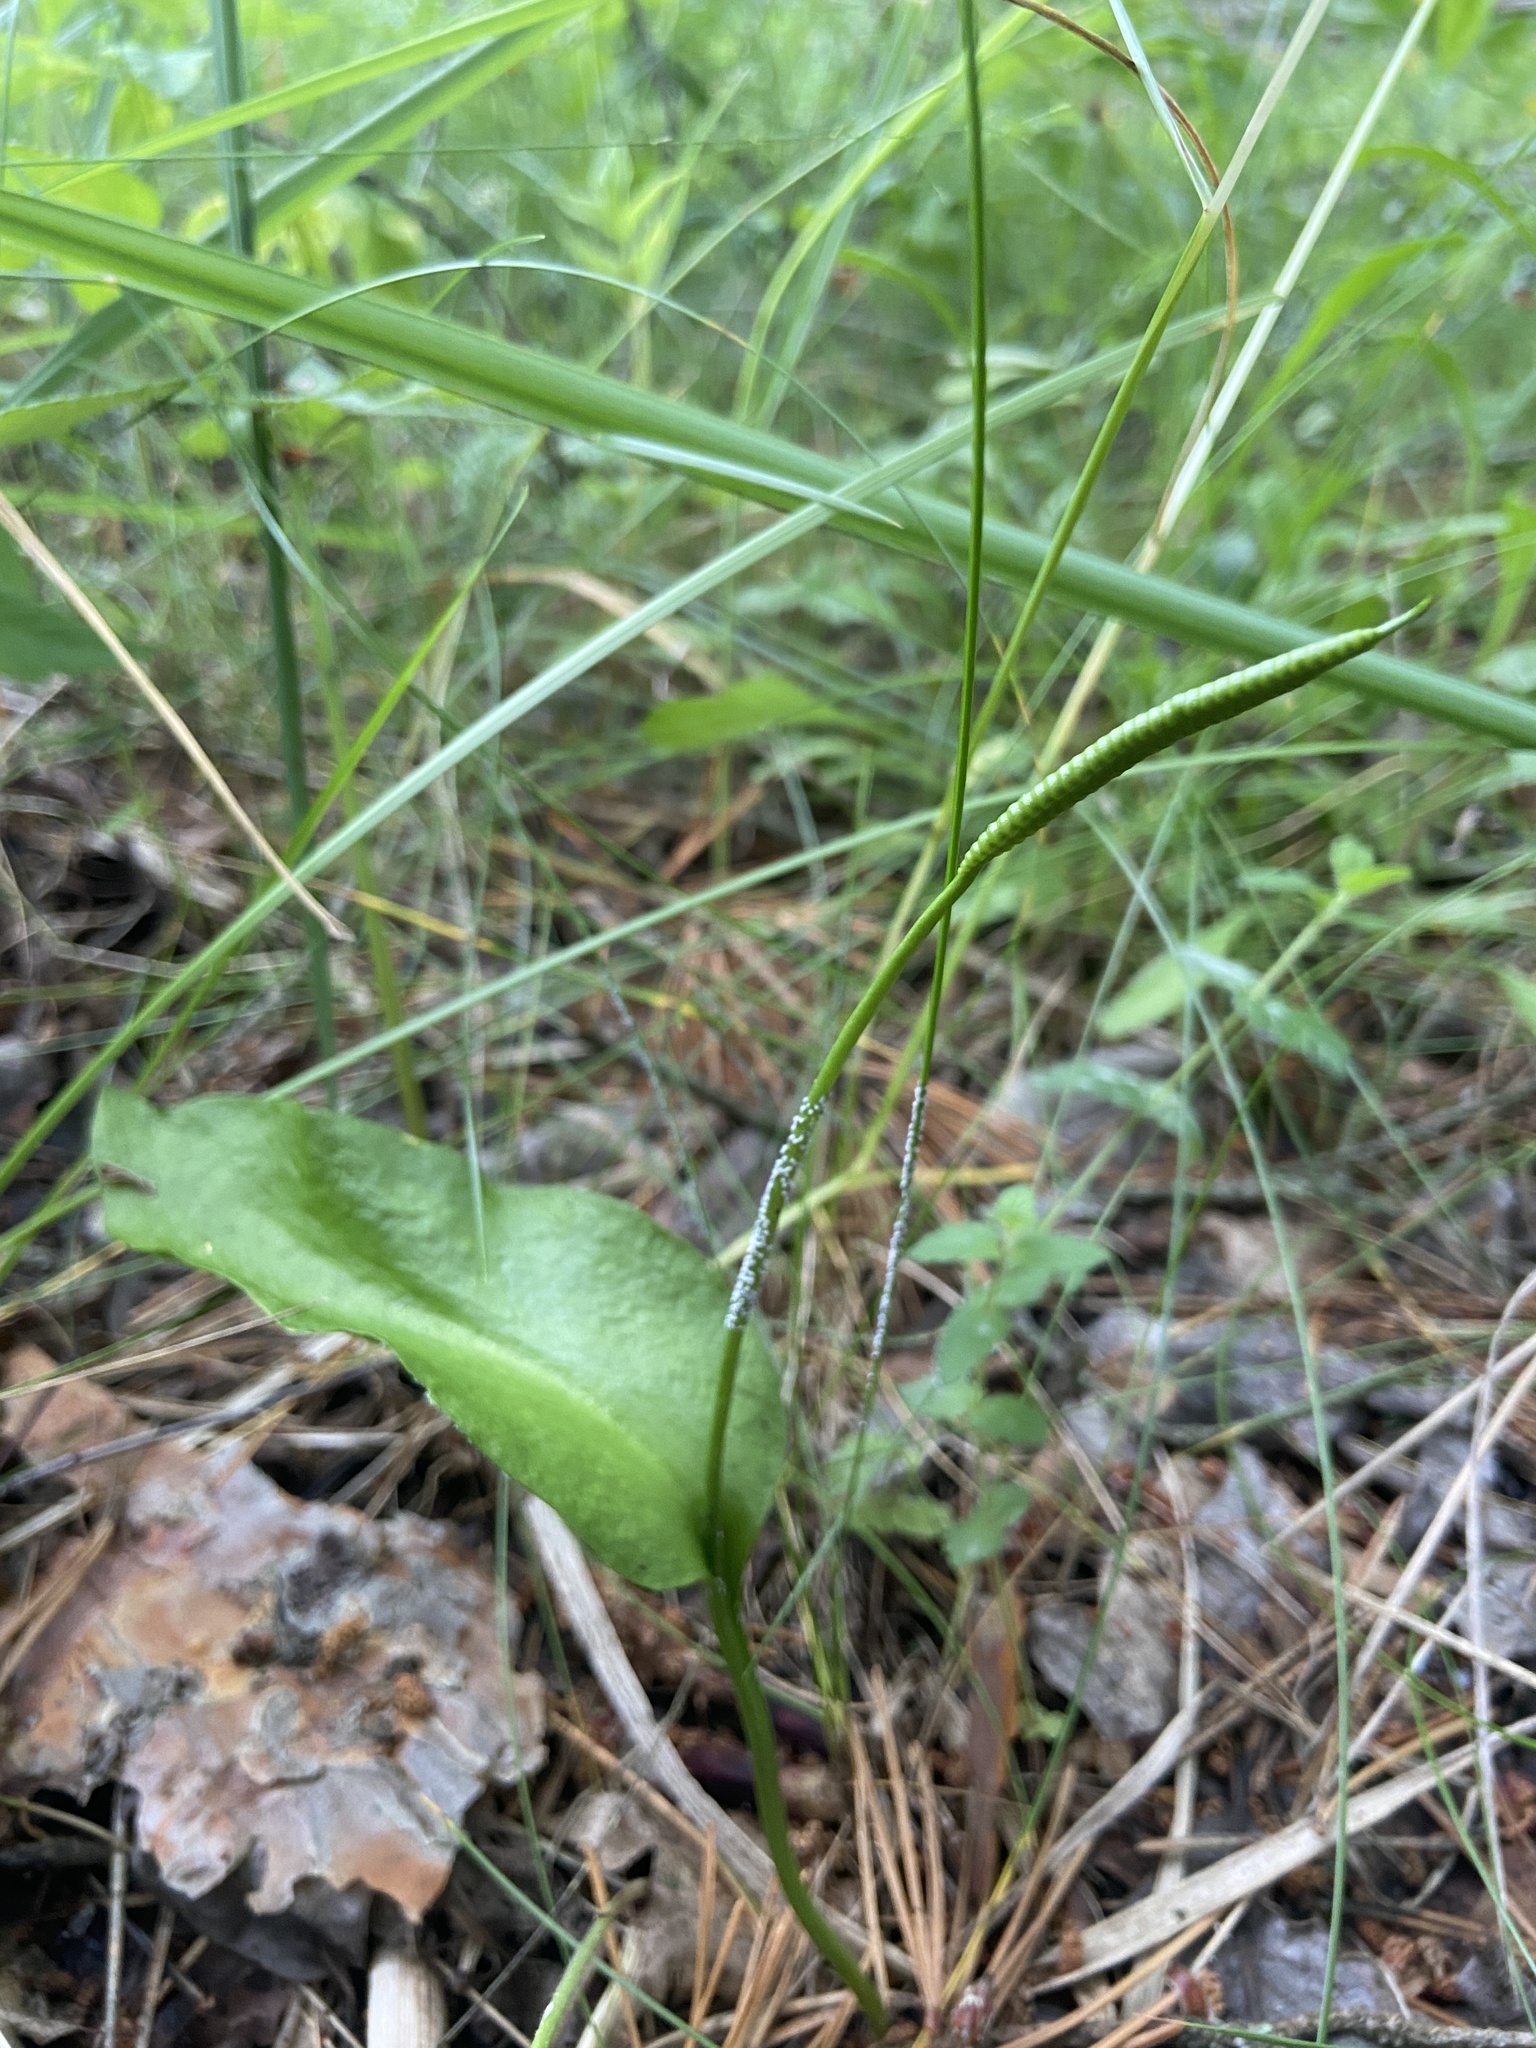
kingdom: Plantae
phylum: Tracheophyta
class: Polypodiopsida
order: Ophioglossales
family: Ophioglossaceae
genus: Ophioglossum
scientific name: Ophioglossum vulgatum
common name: Adder's-tongue
